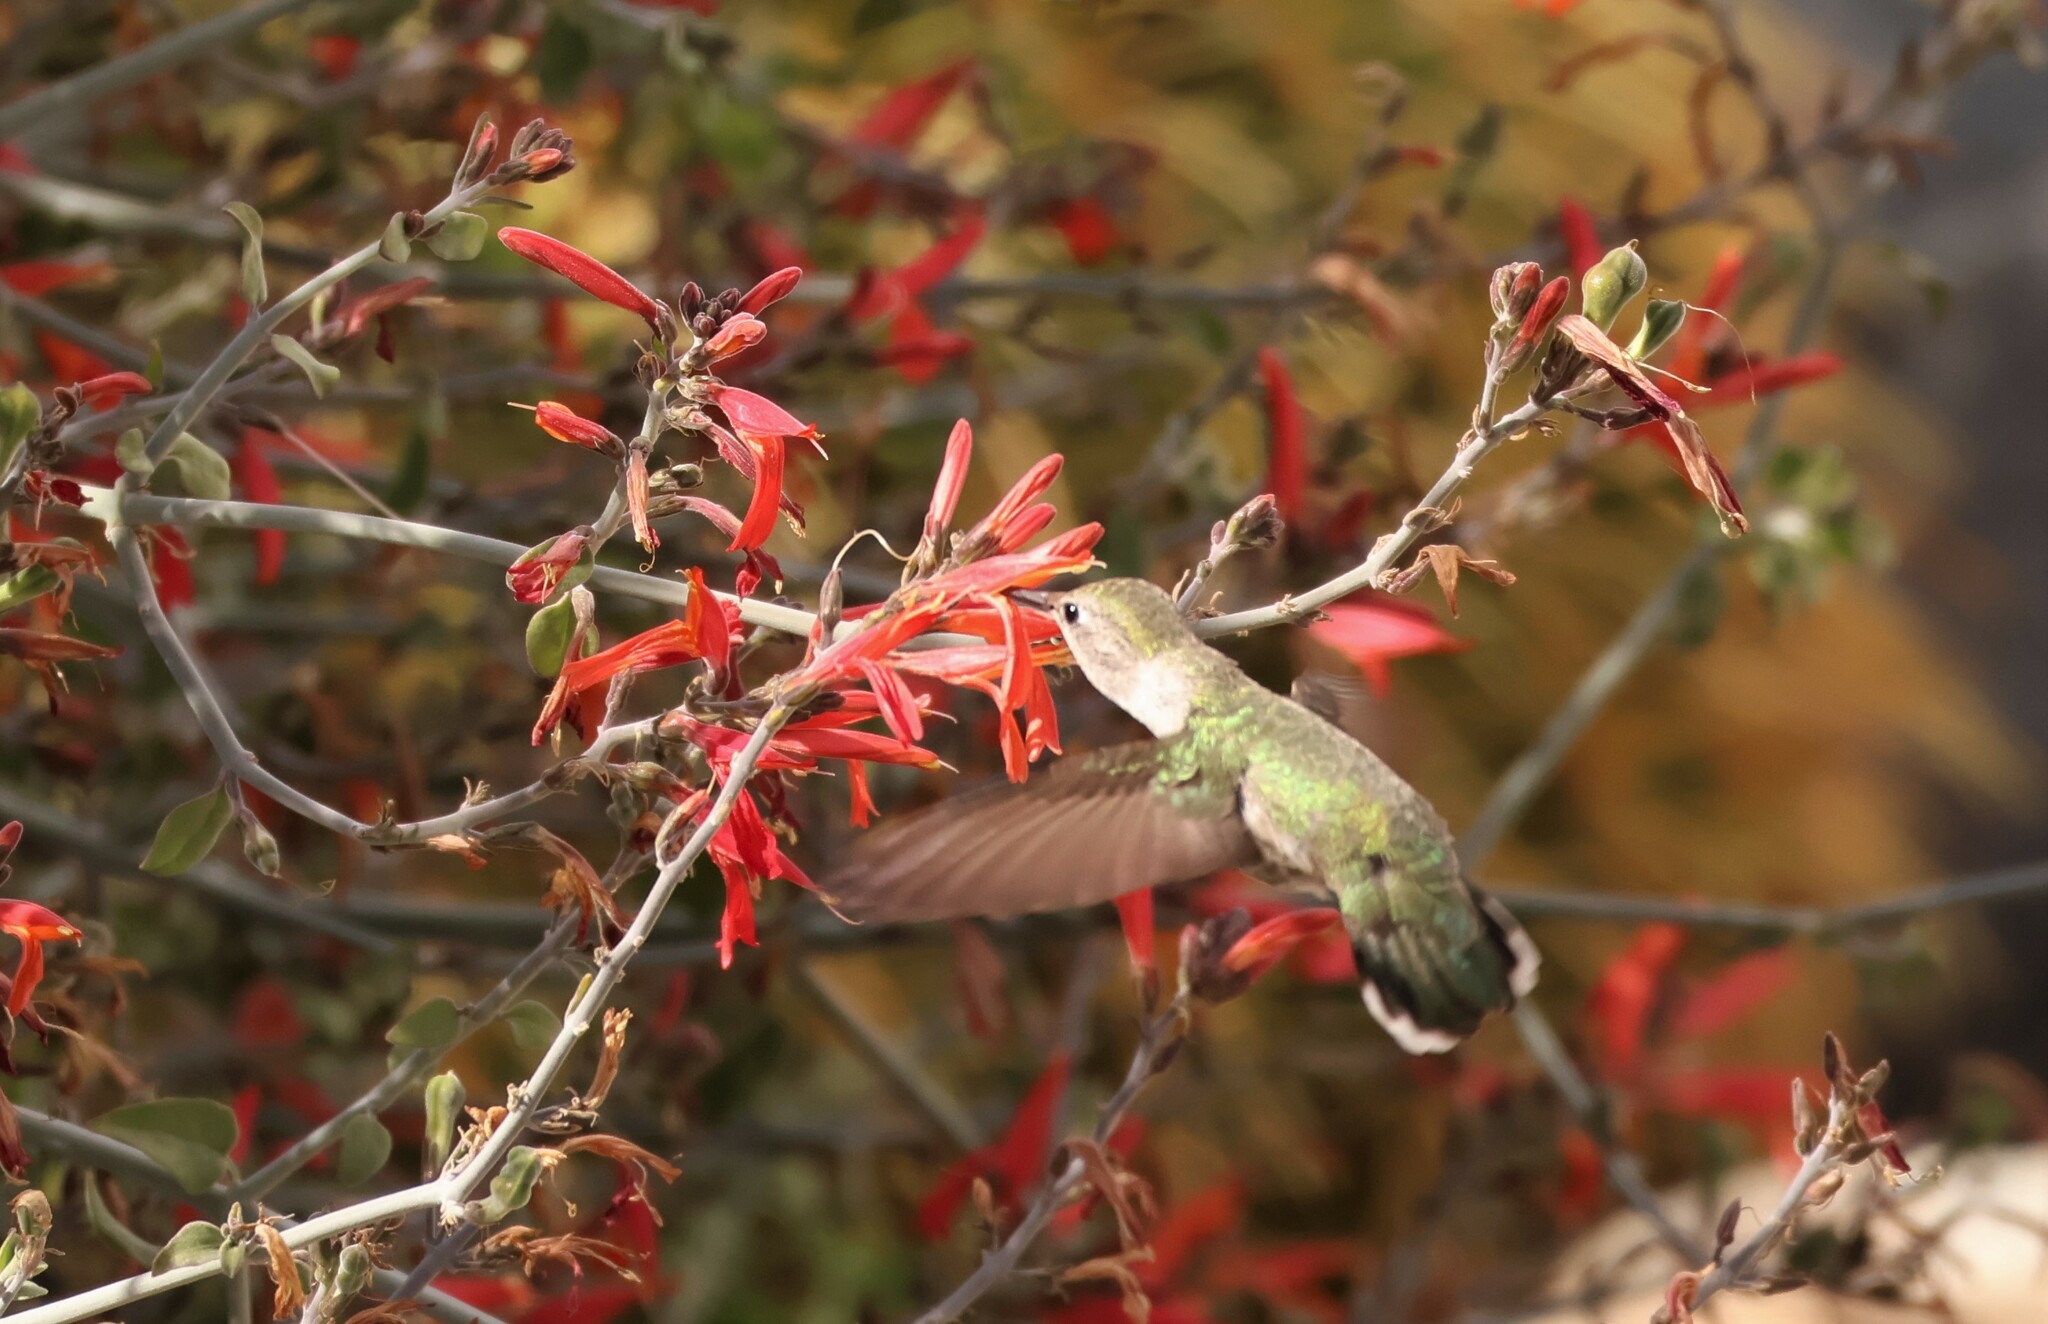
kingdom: Animalia
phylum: Chordata
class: Aves
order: Apodiformes
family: Trochilidae
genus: Calypte
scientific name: Calypte costae
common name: Costa's hummingbird
